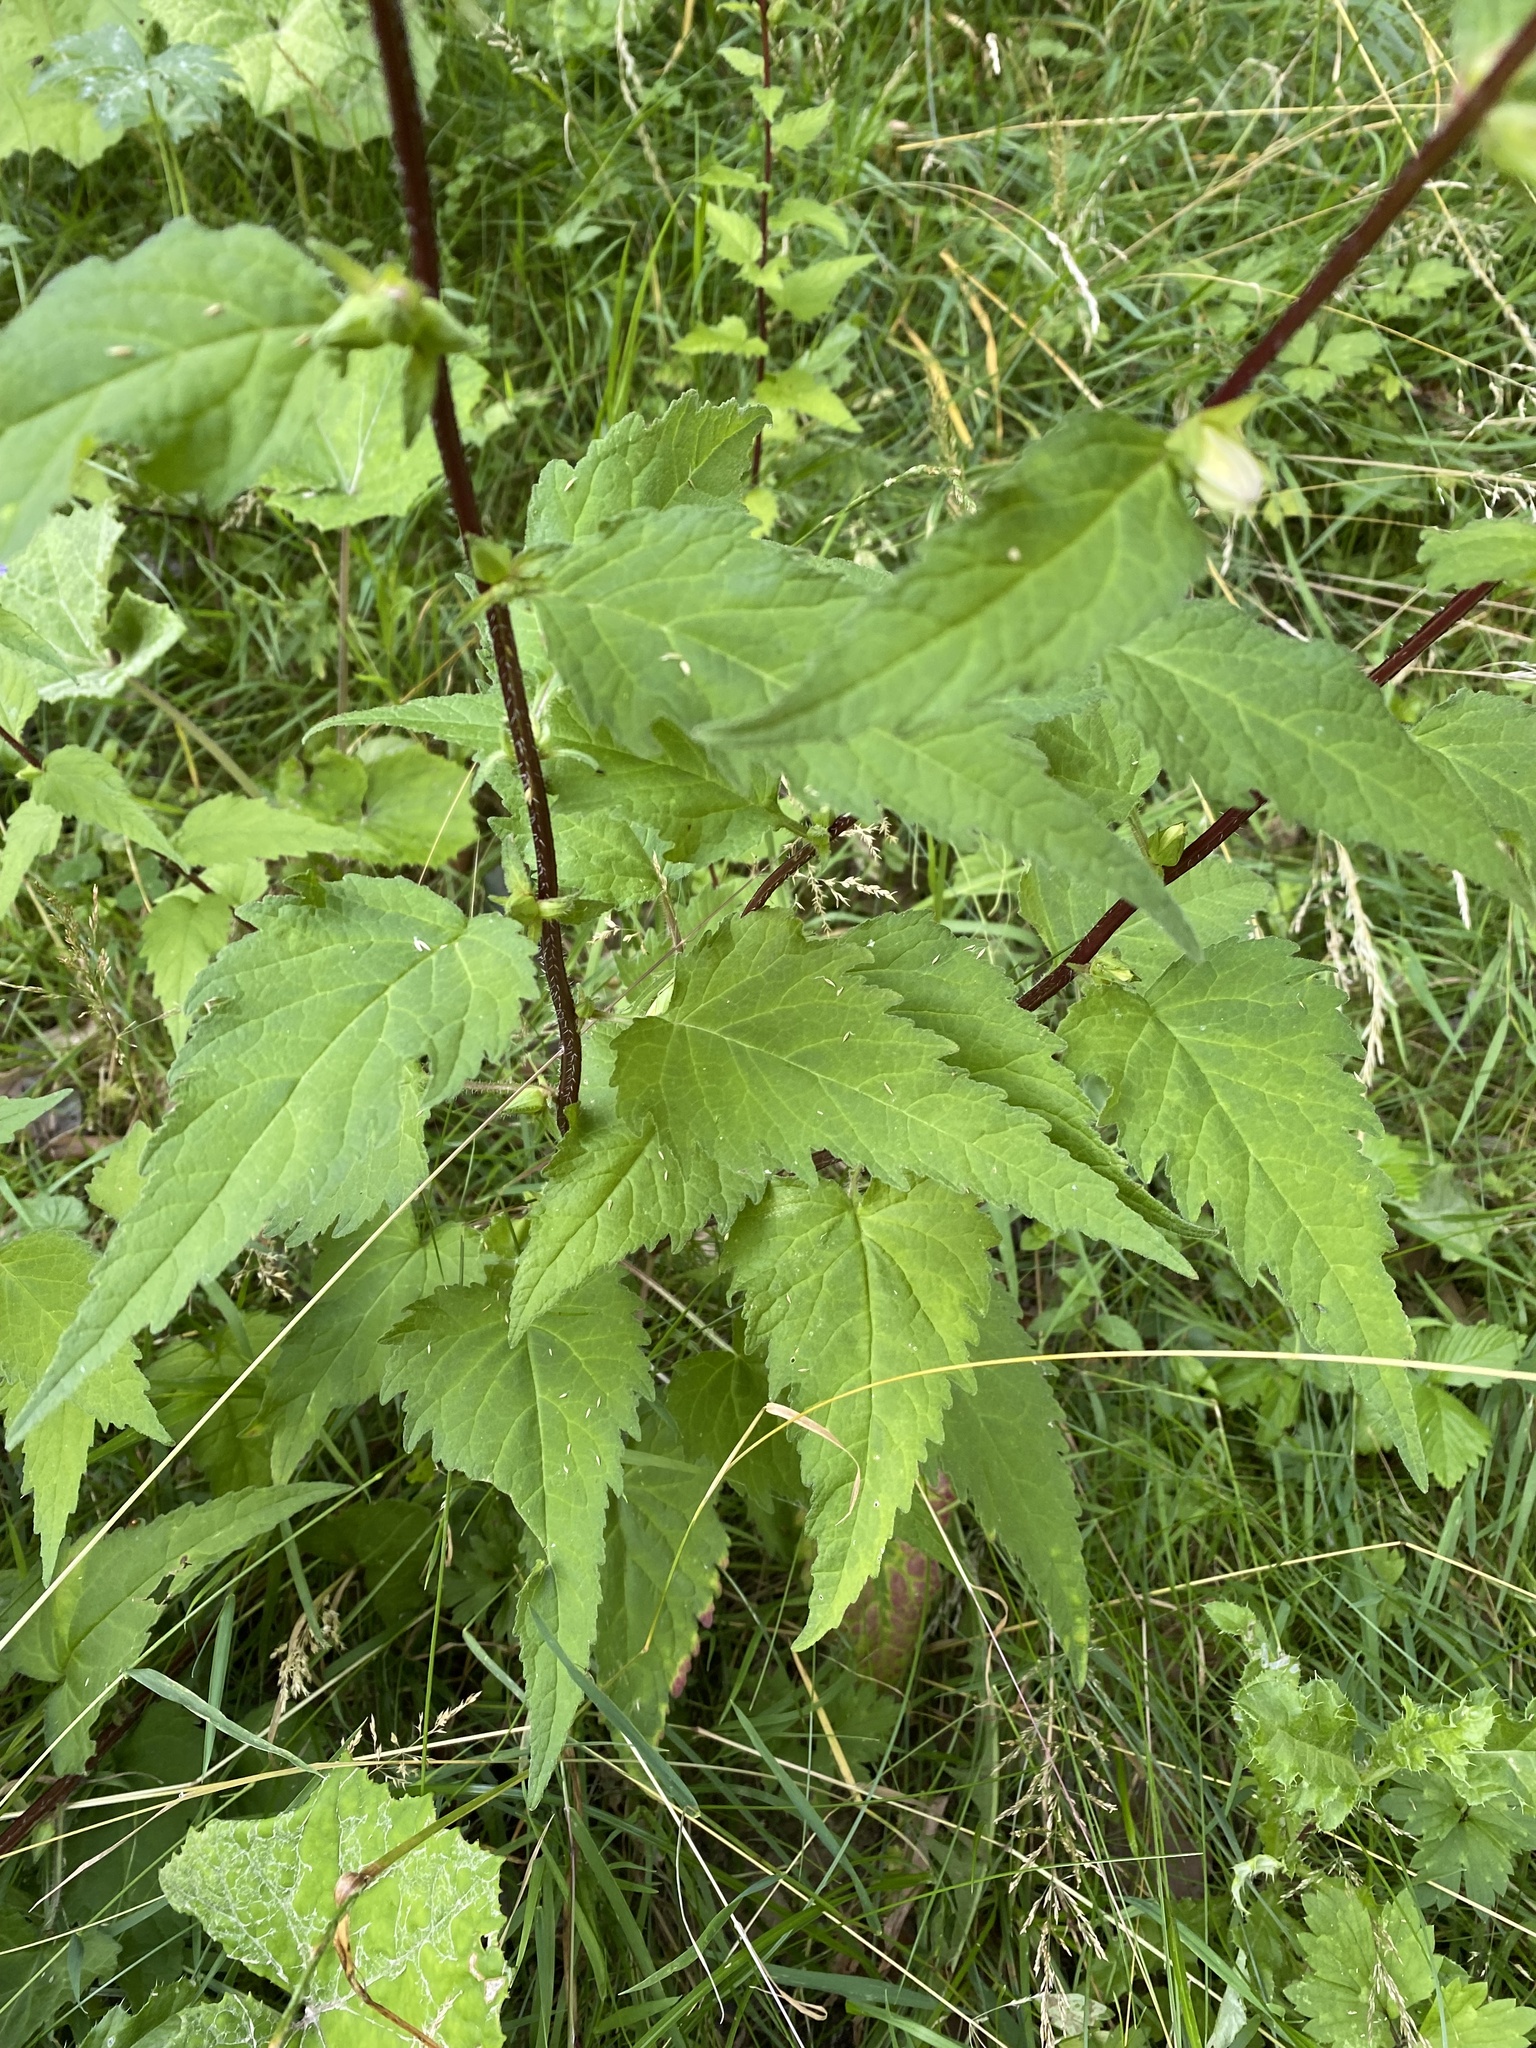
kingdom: Plantae
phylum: Tracheophyta
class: Magnoliopsida
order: Asterales
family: Campanulaceae
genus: Campanula
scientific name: Campanula trachelium
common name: Nettle-leaved bellflower
